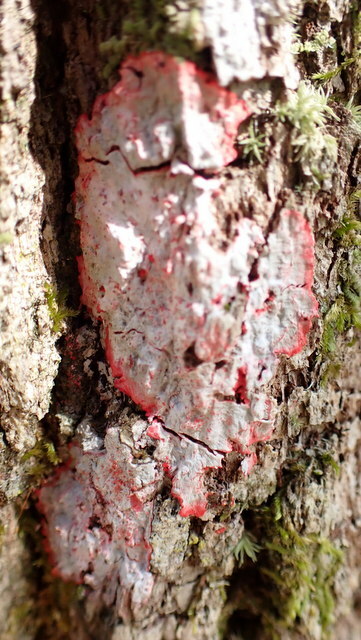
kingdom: Fungi
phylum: Ascomycota
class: Arthoniomycetes
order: Arthoniales
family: Arthoniaceae
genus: Herpothallon
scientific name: Herpothallon rubrocinctum
